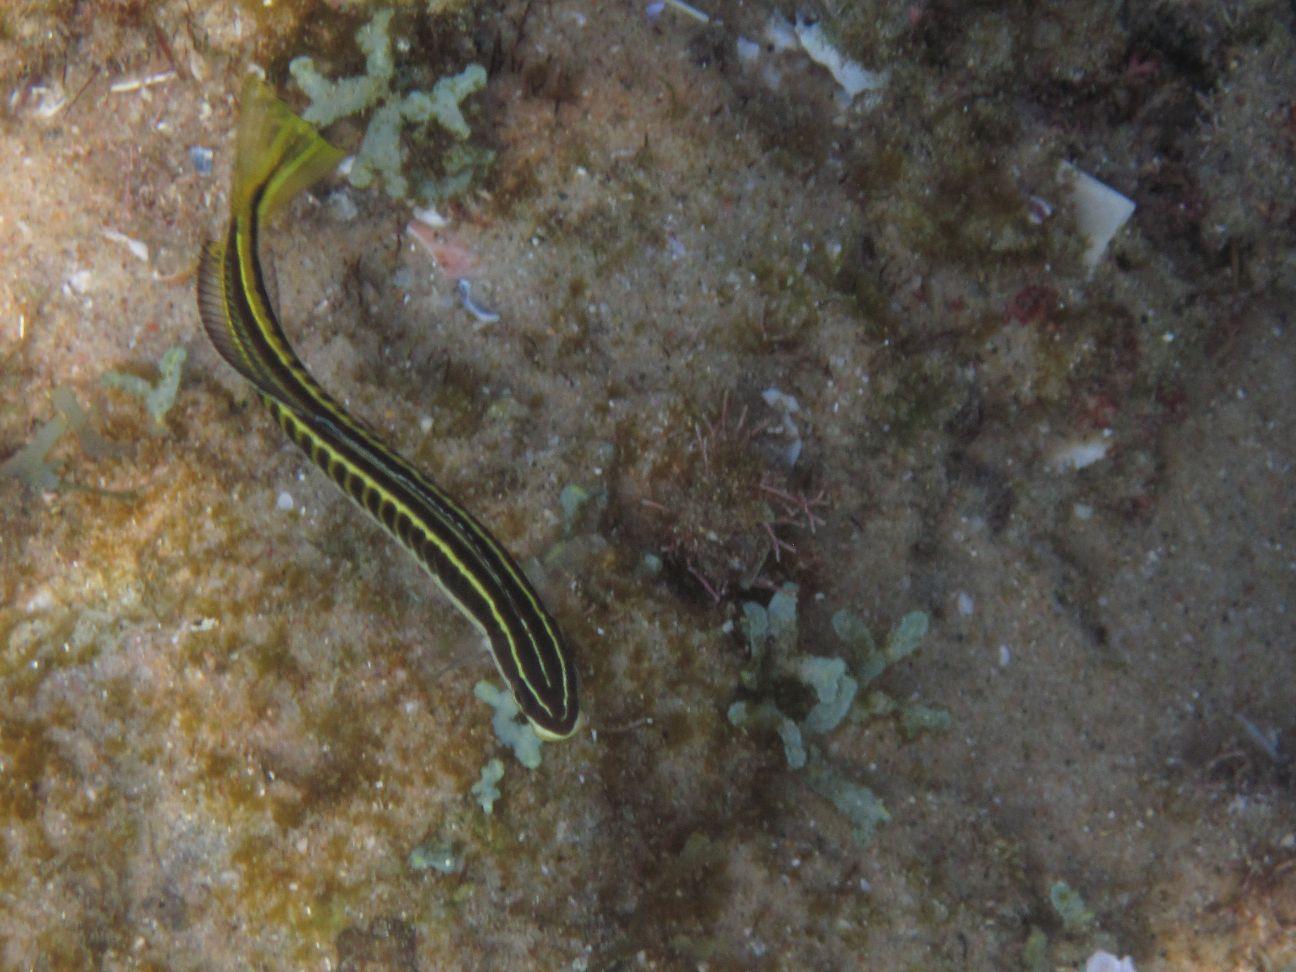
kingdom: Animalia
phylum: Chordata
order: Perciformes
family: Blenniidae
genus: Plagiotremus
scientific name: Plagiotremus tapeinosoma
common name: Hit and run blenny
